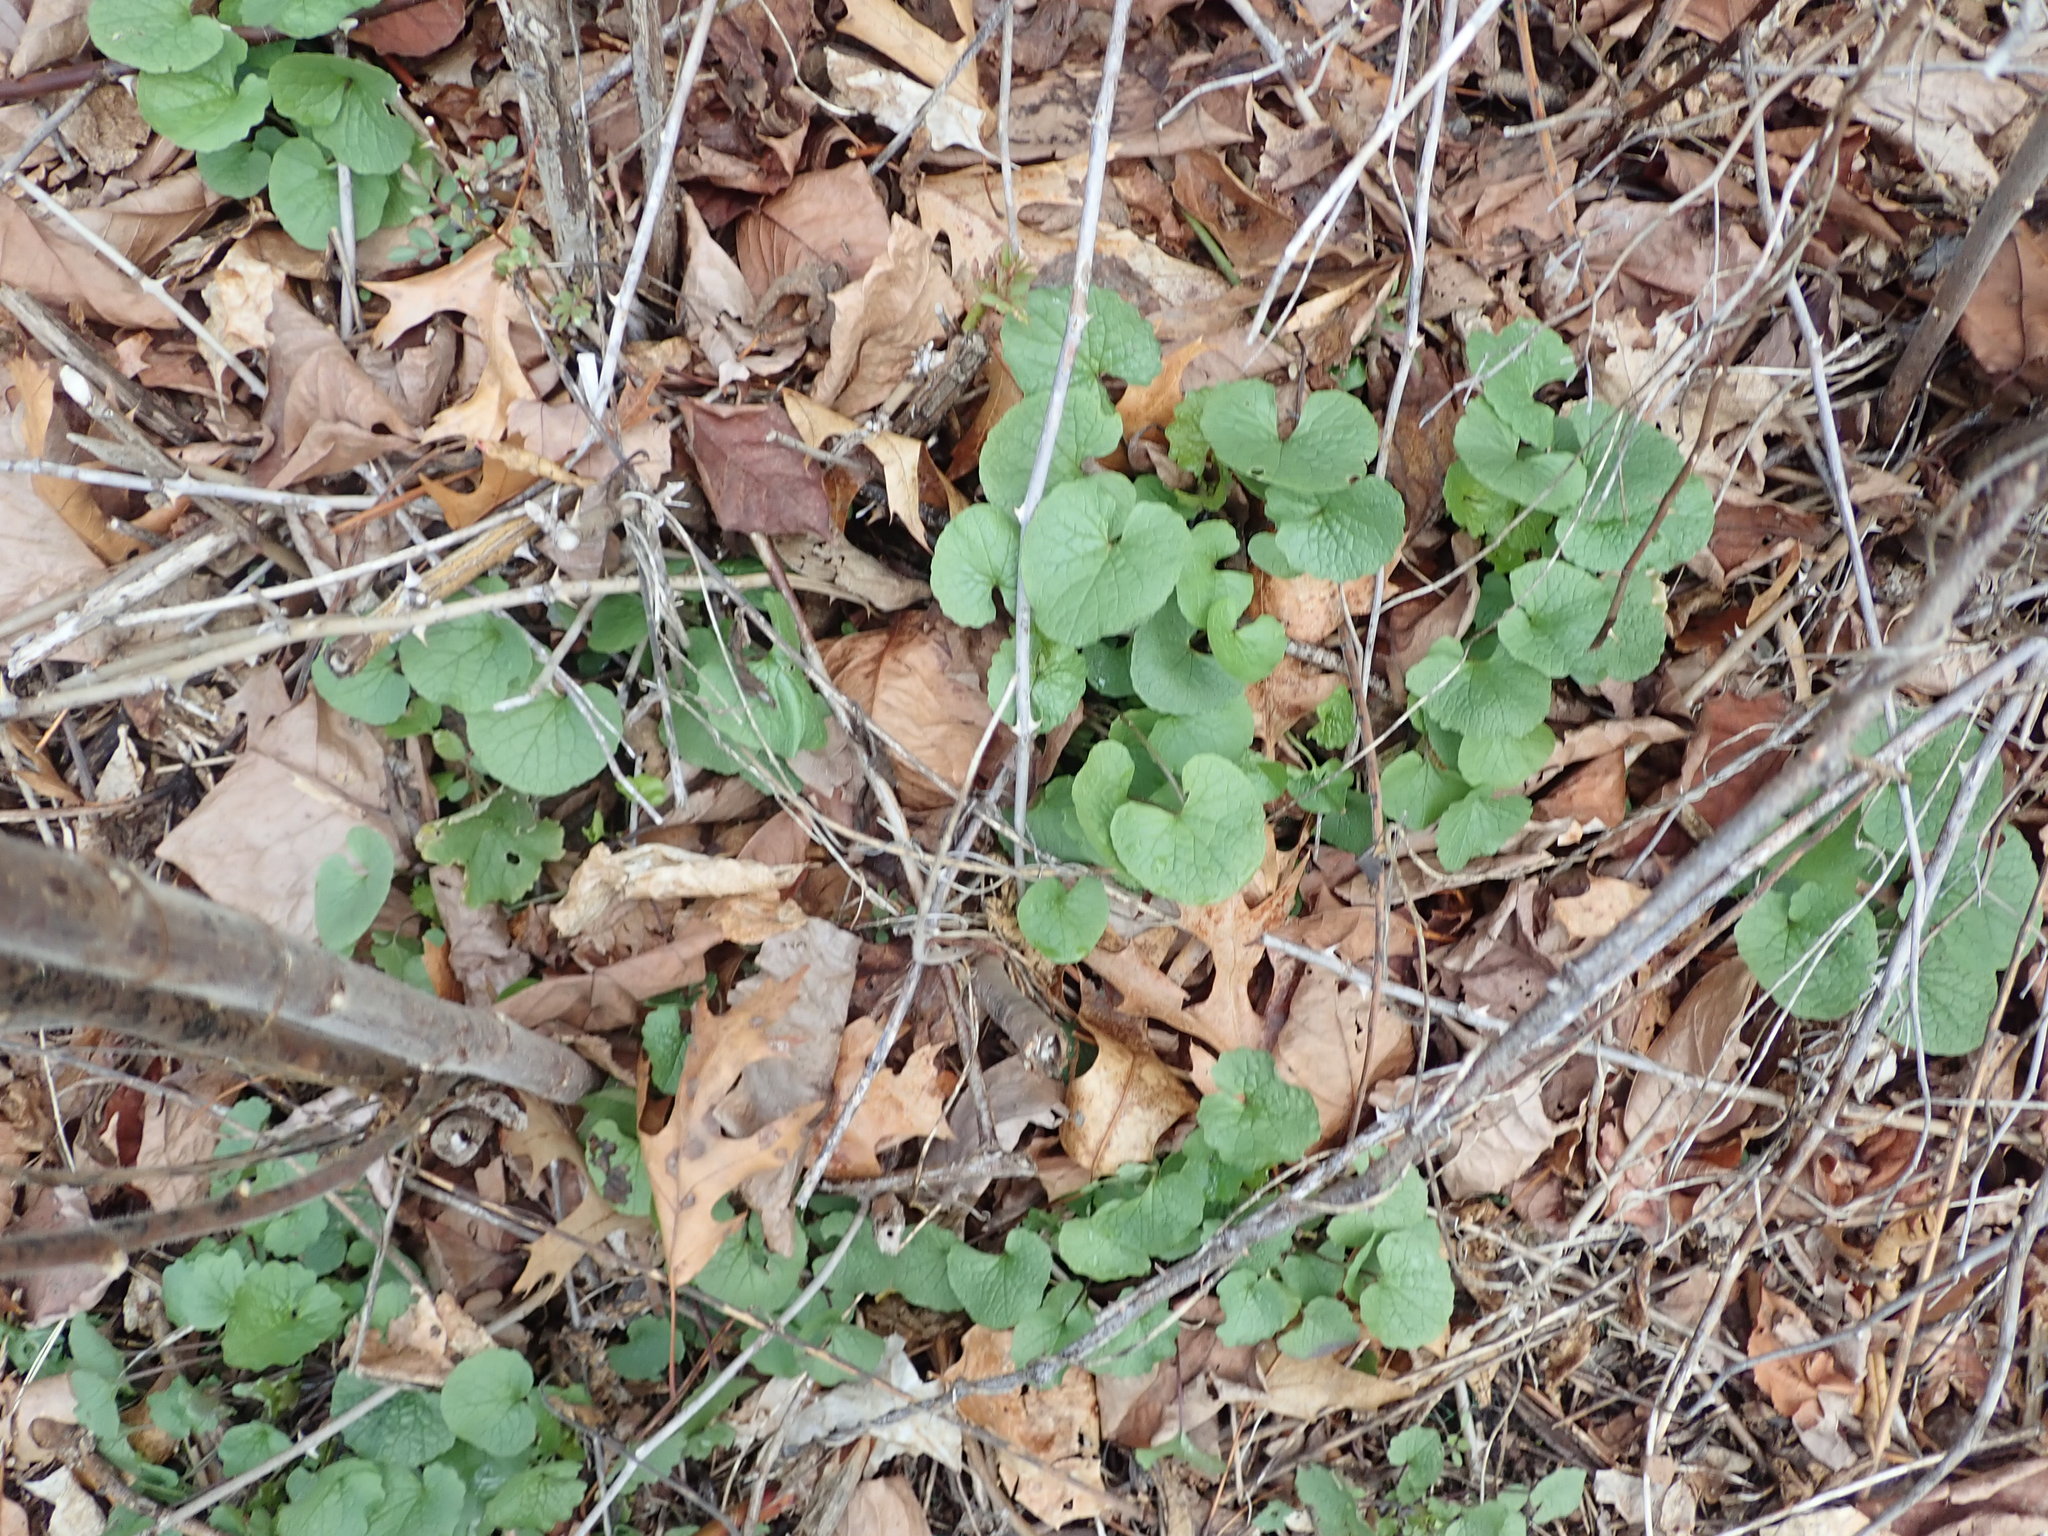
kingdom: Plantae
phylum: Tracheophyta
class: Magnoliopsida
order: Brassicales
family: Brassicaceae
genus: Alliaria
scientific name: Alliaria petiolata
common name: Garlic mustard
